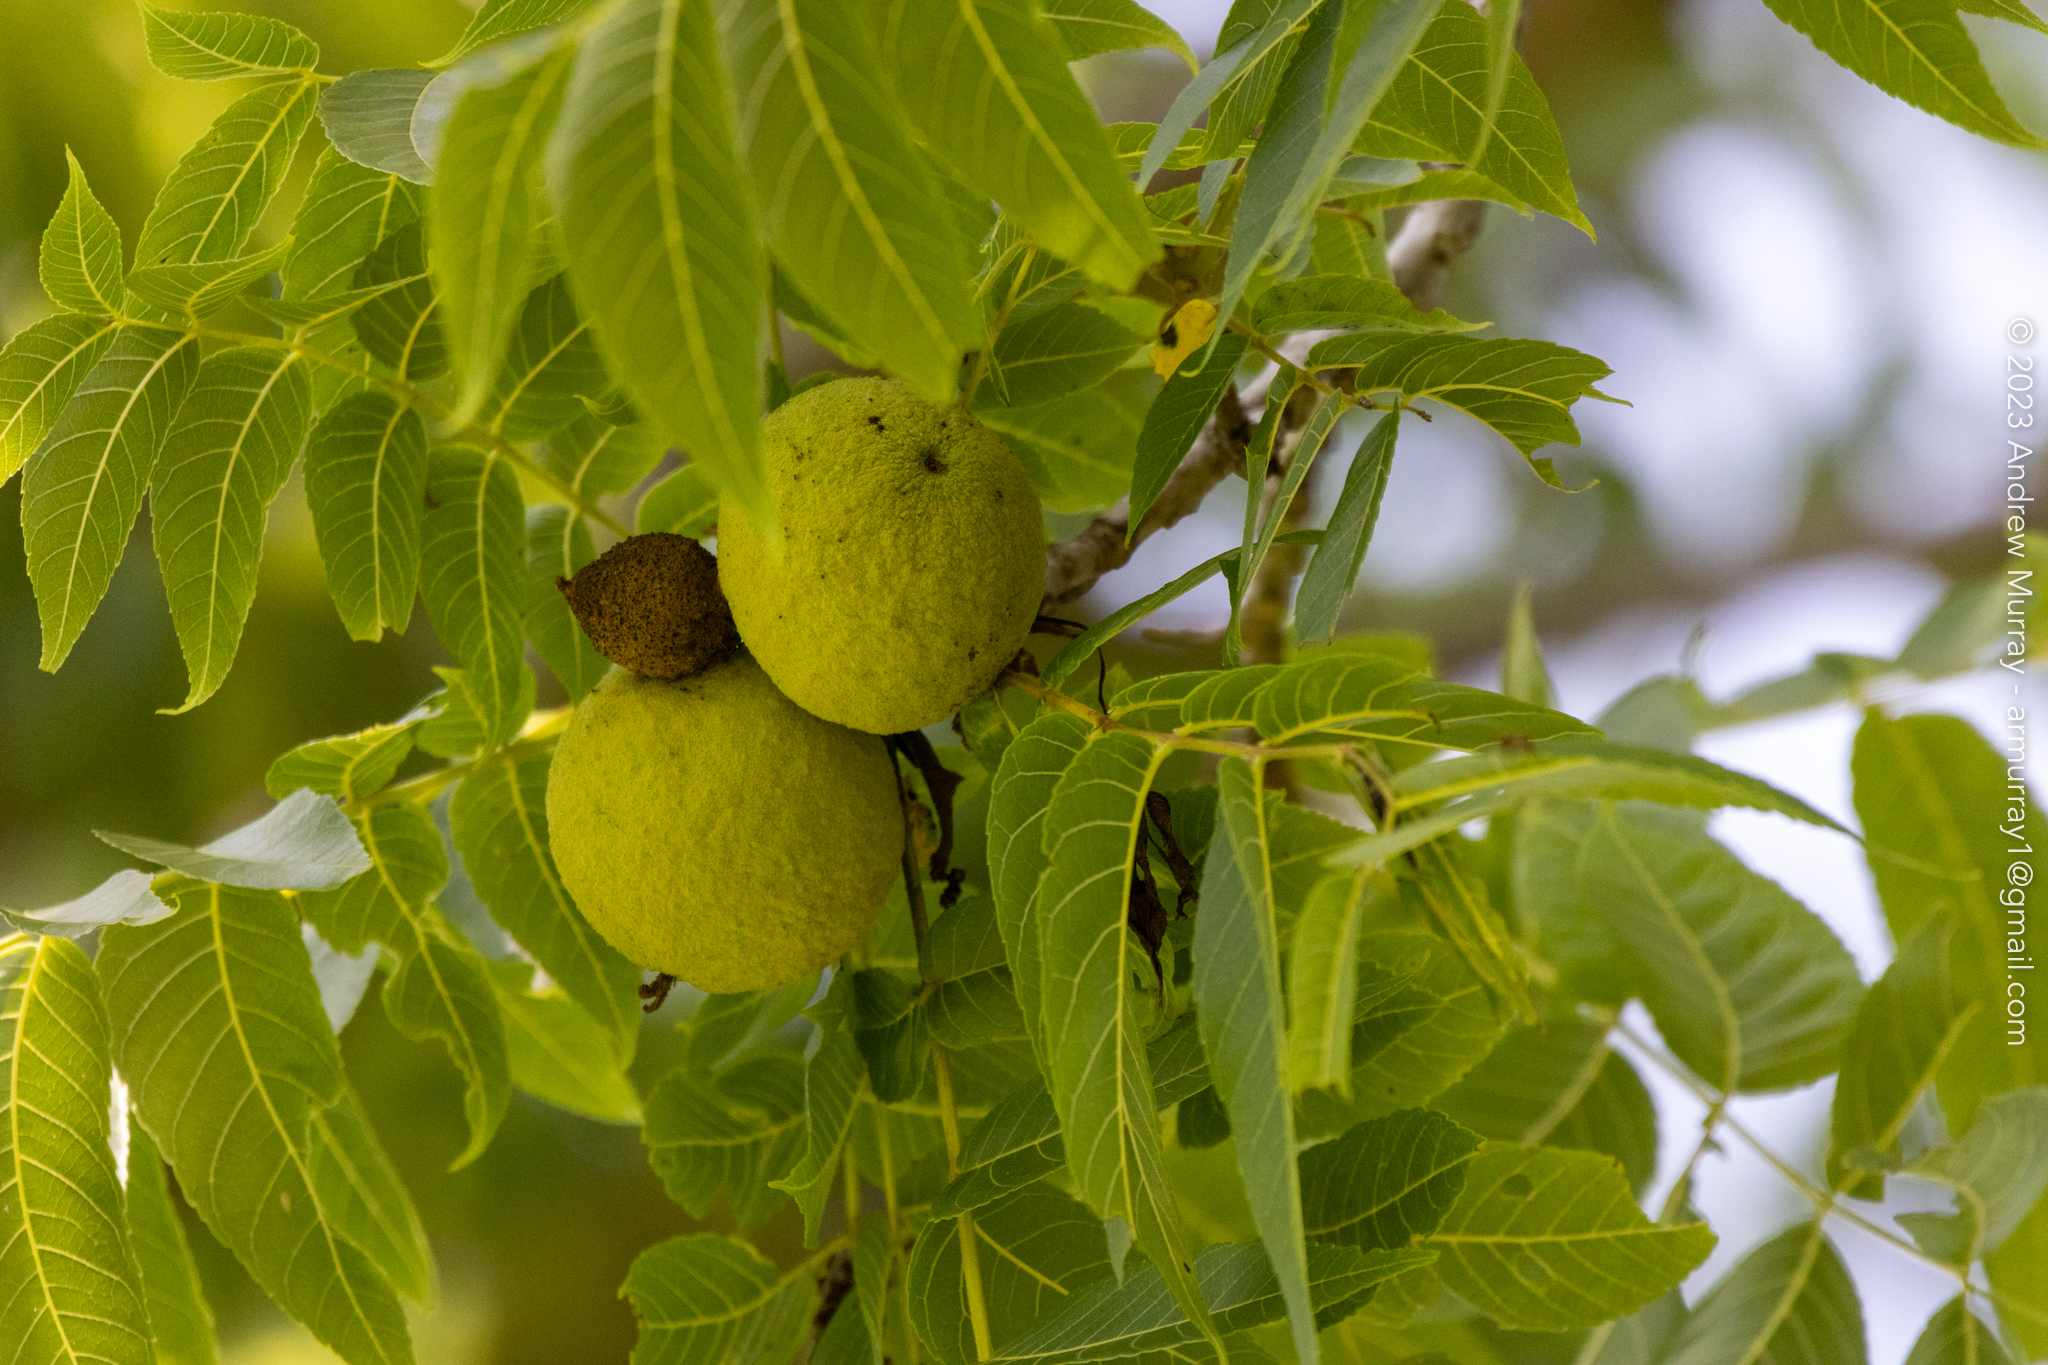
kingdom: Plantae
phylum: Tracheophyta
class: Magnoliopsida
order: Fagales
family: Juglandaceae
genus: Juglans
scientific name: Juglans nigra
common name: Black walnut
